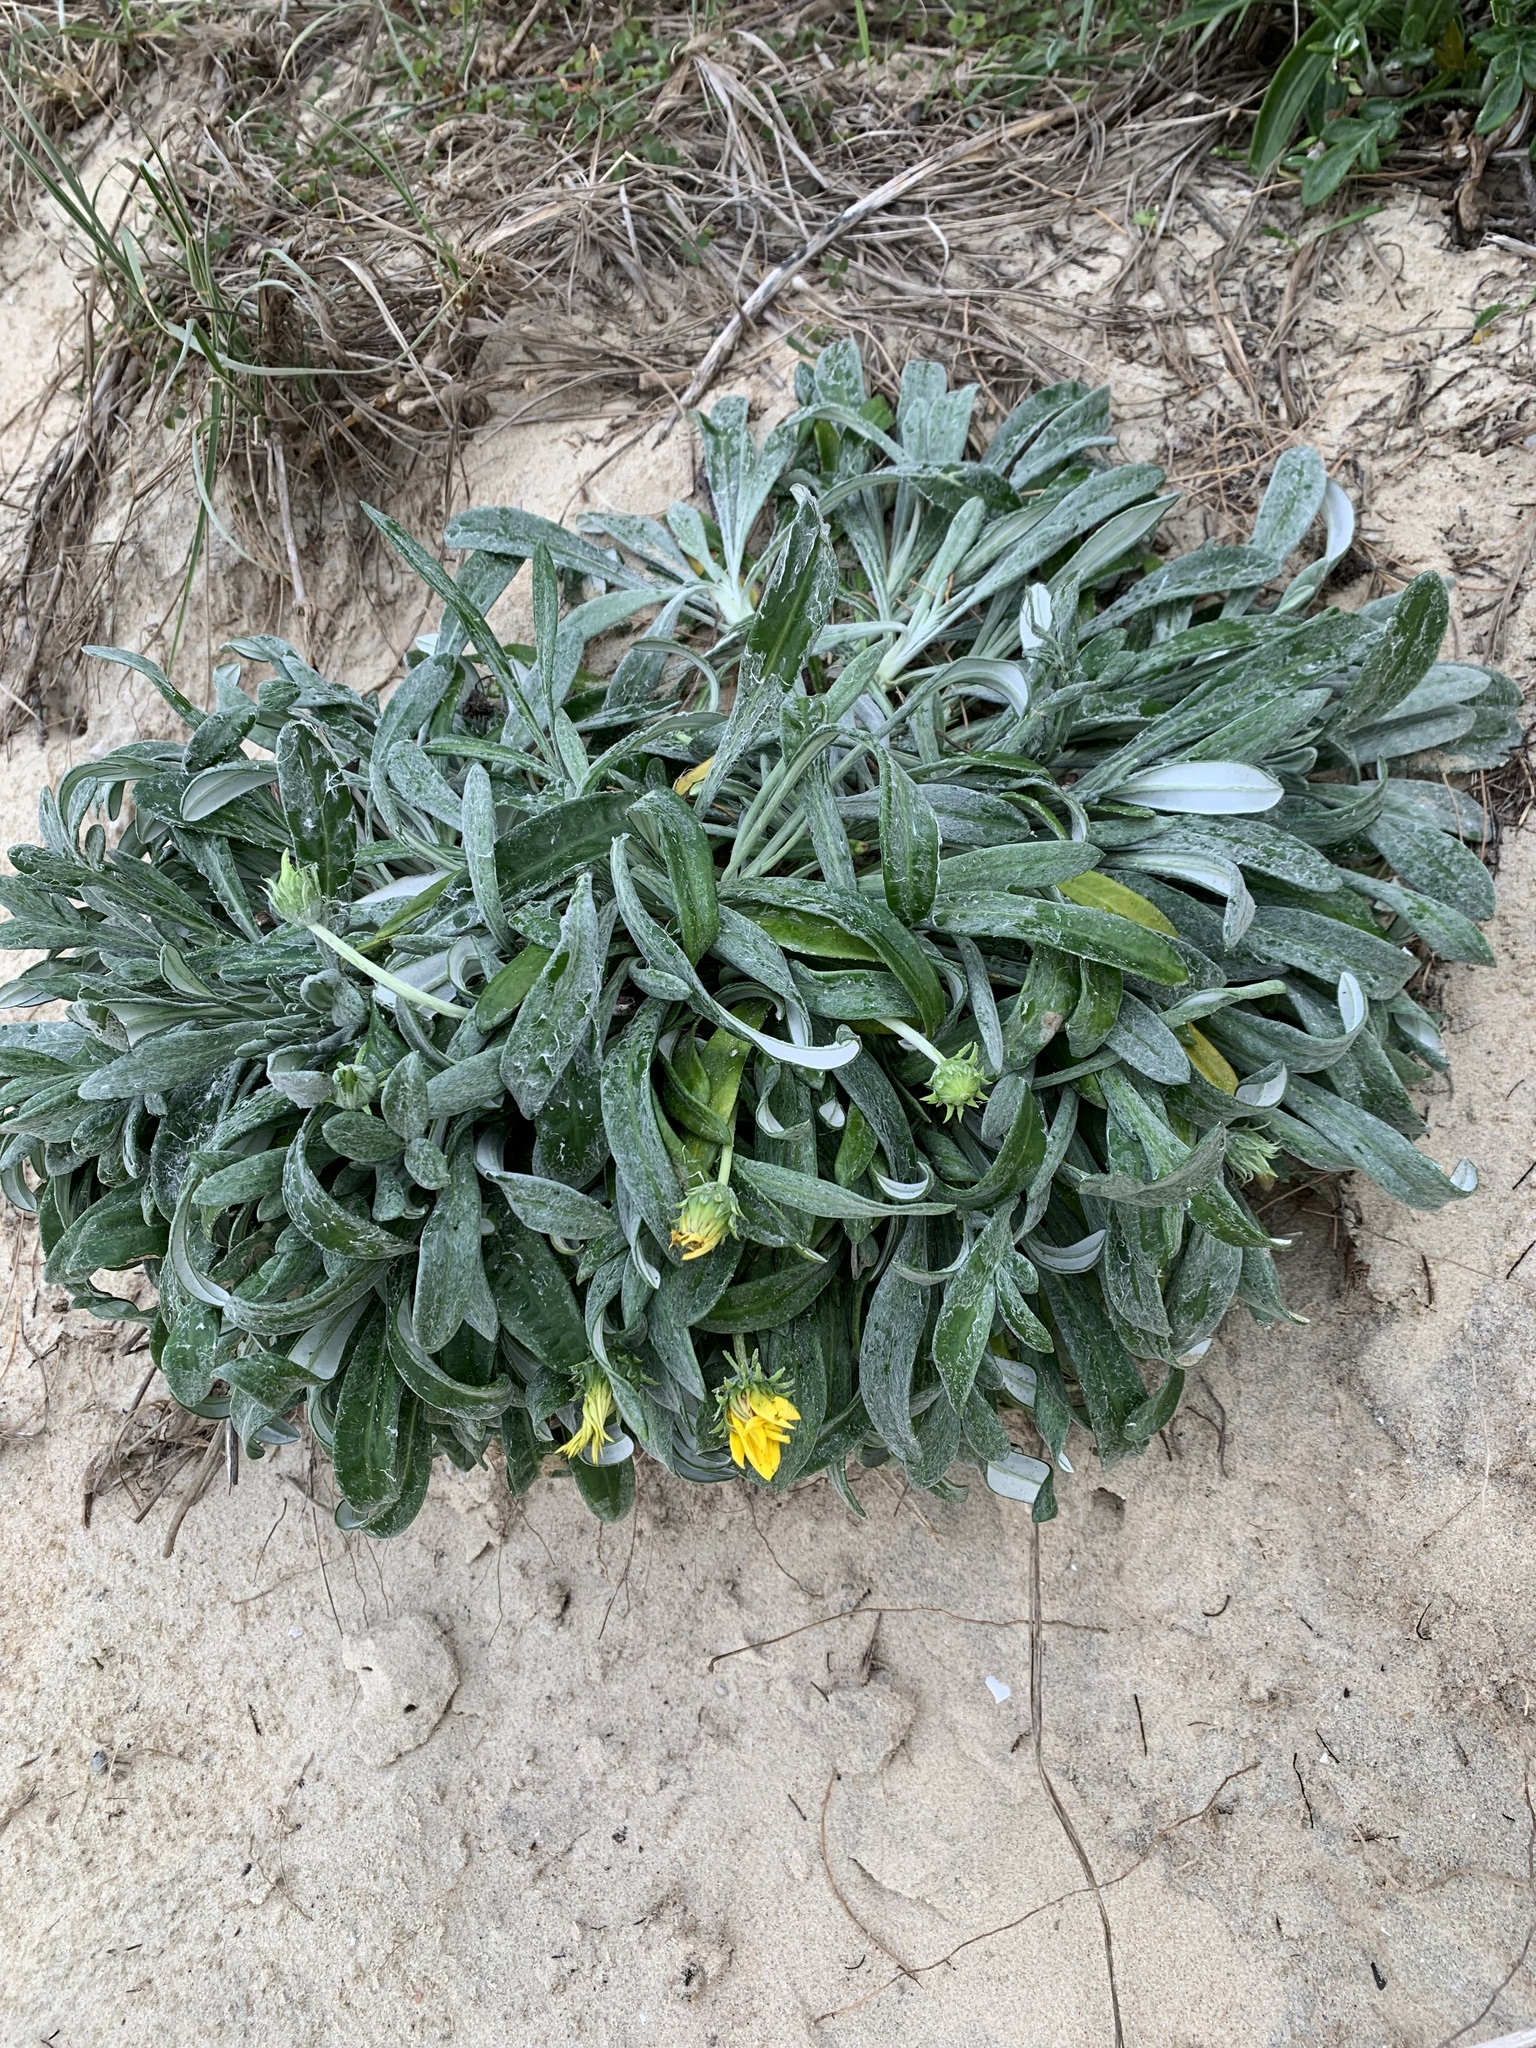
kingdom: Plantae
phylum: Tracheophyta
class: Magnoliopsida
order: Asterales
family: Asteraceae
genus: Gazania
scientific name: Gazania splendens
